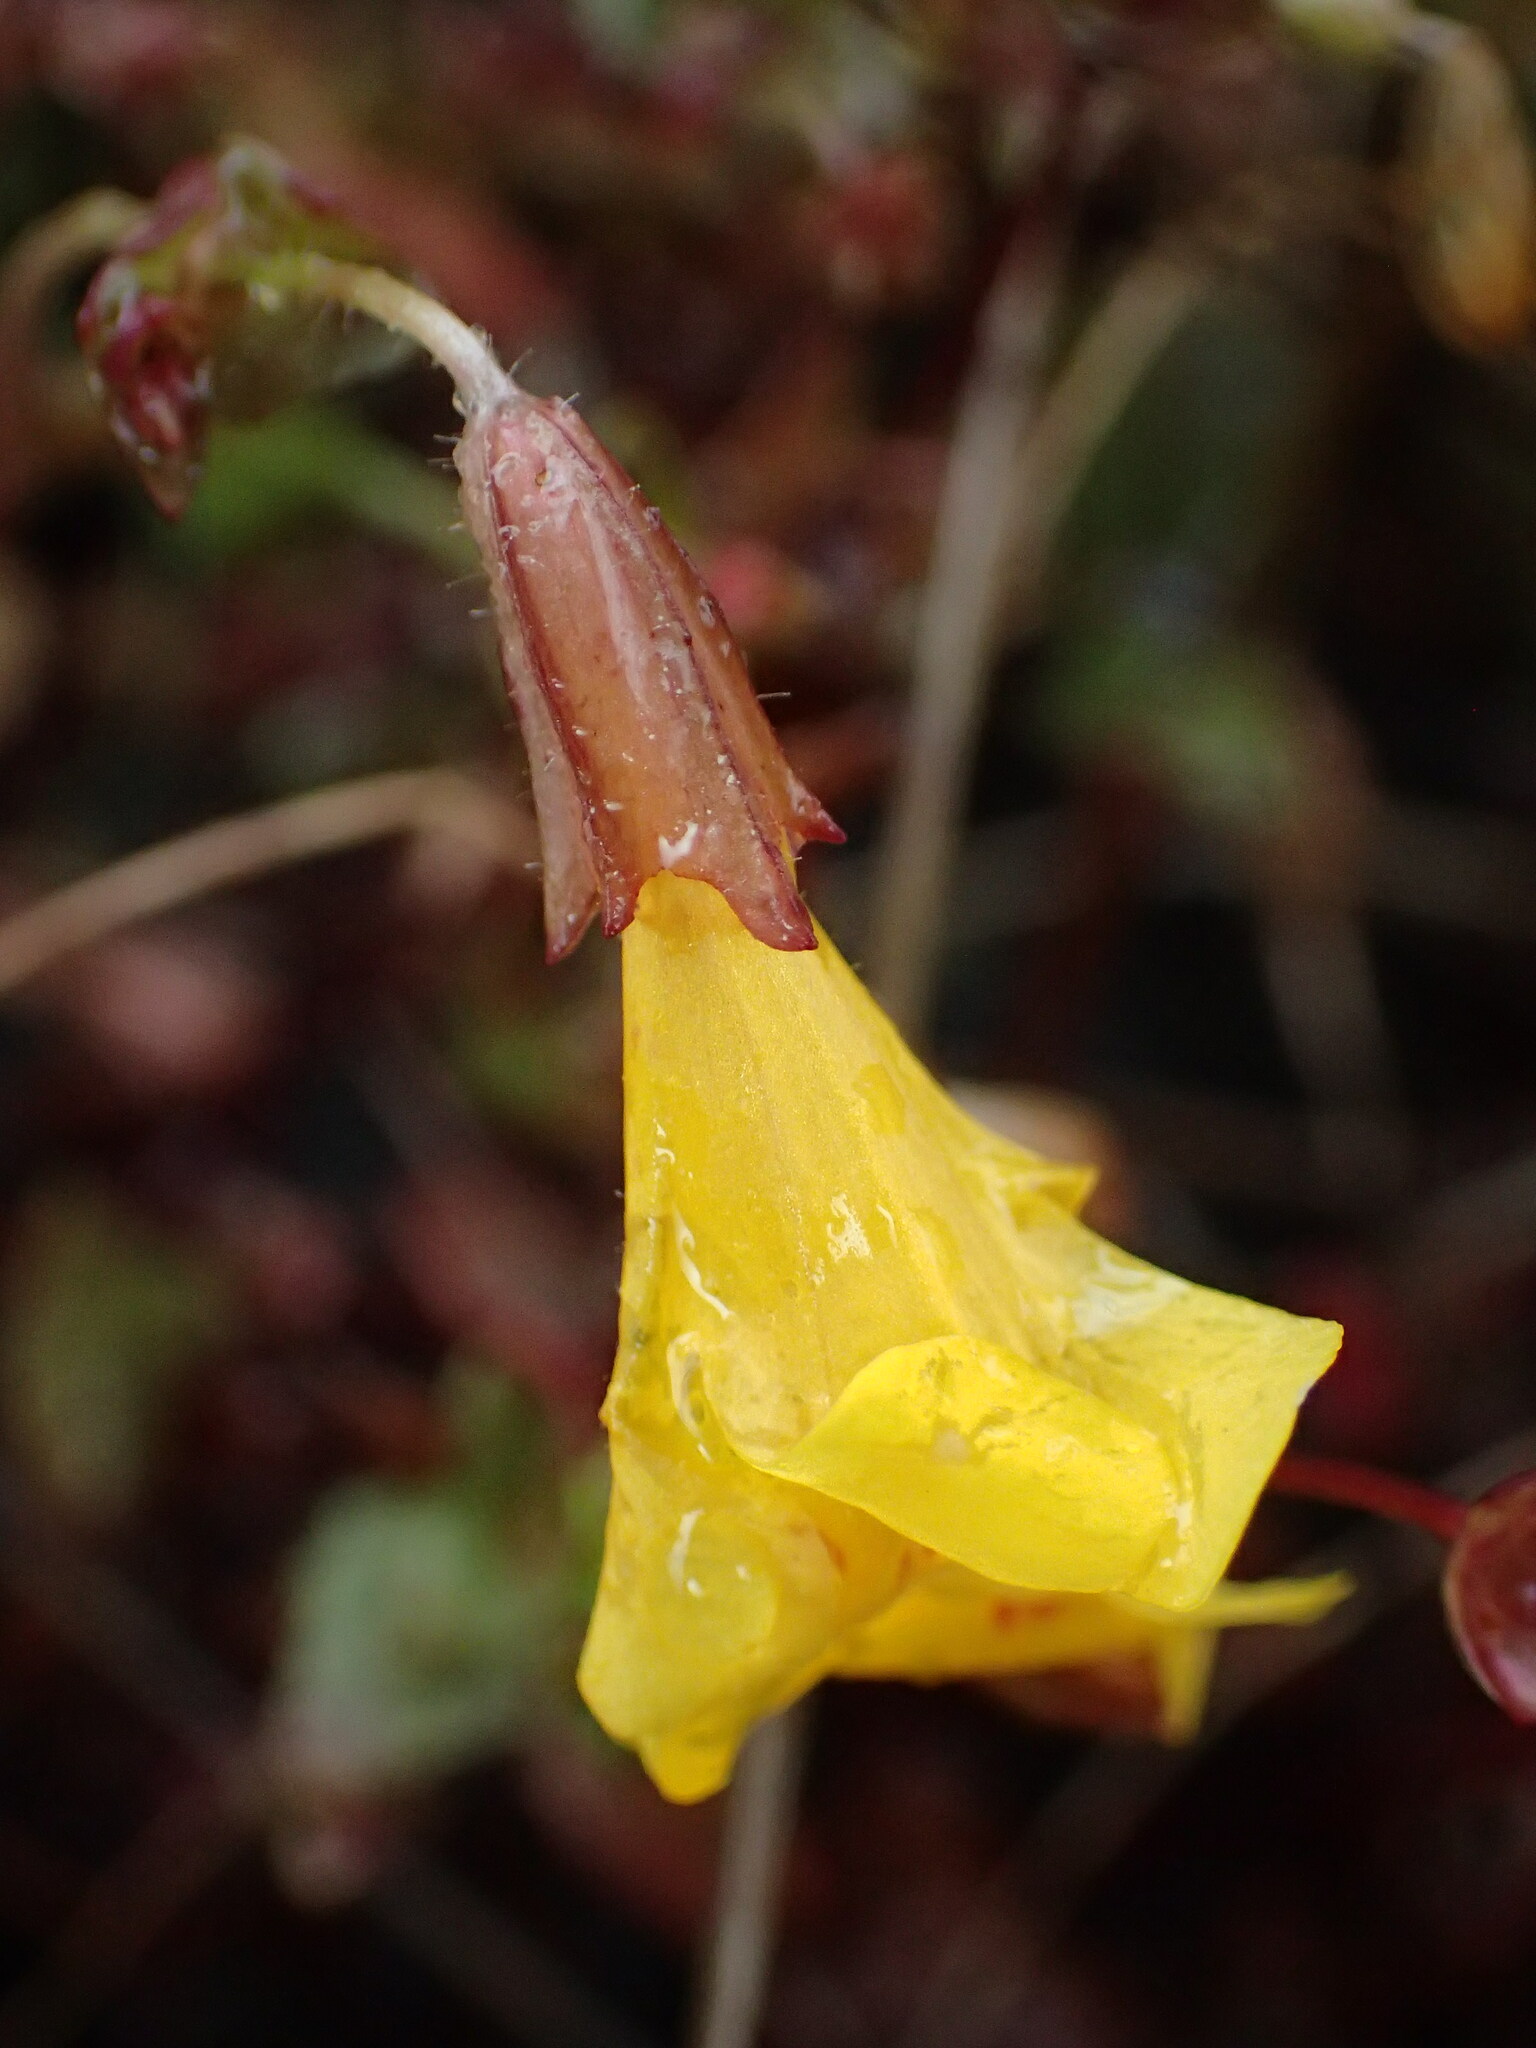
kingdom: Plantae
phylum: Tracheophyta
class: Magnoliopsida
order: Lamiales
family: Phrymaceae
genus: Erythranthe
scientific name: Erythranthe serpentinicola
